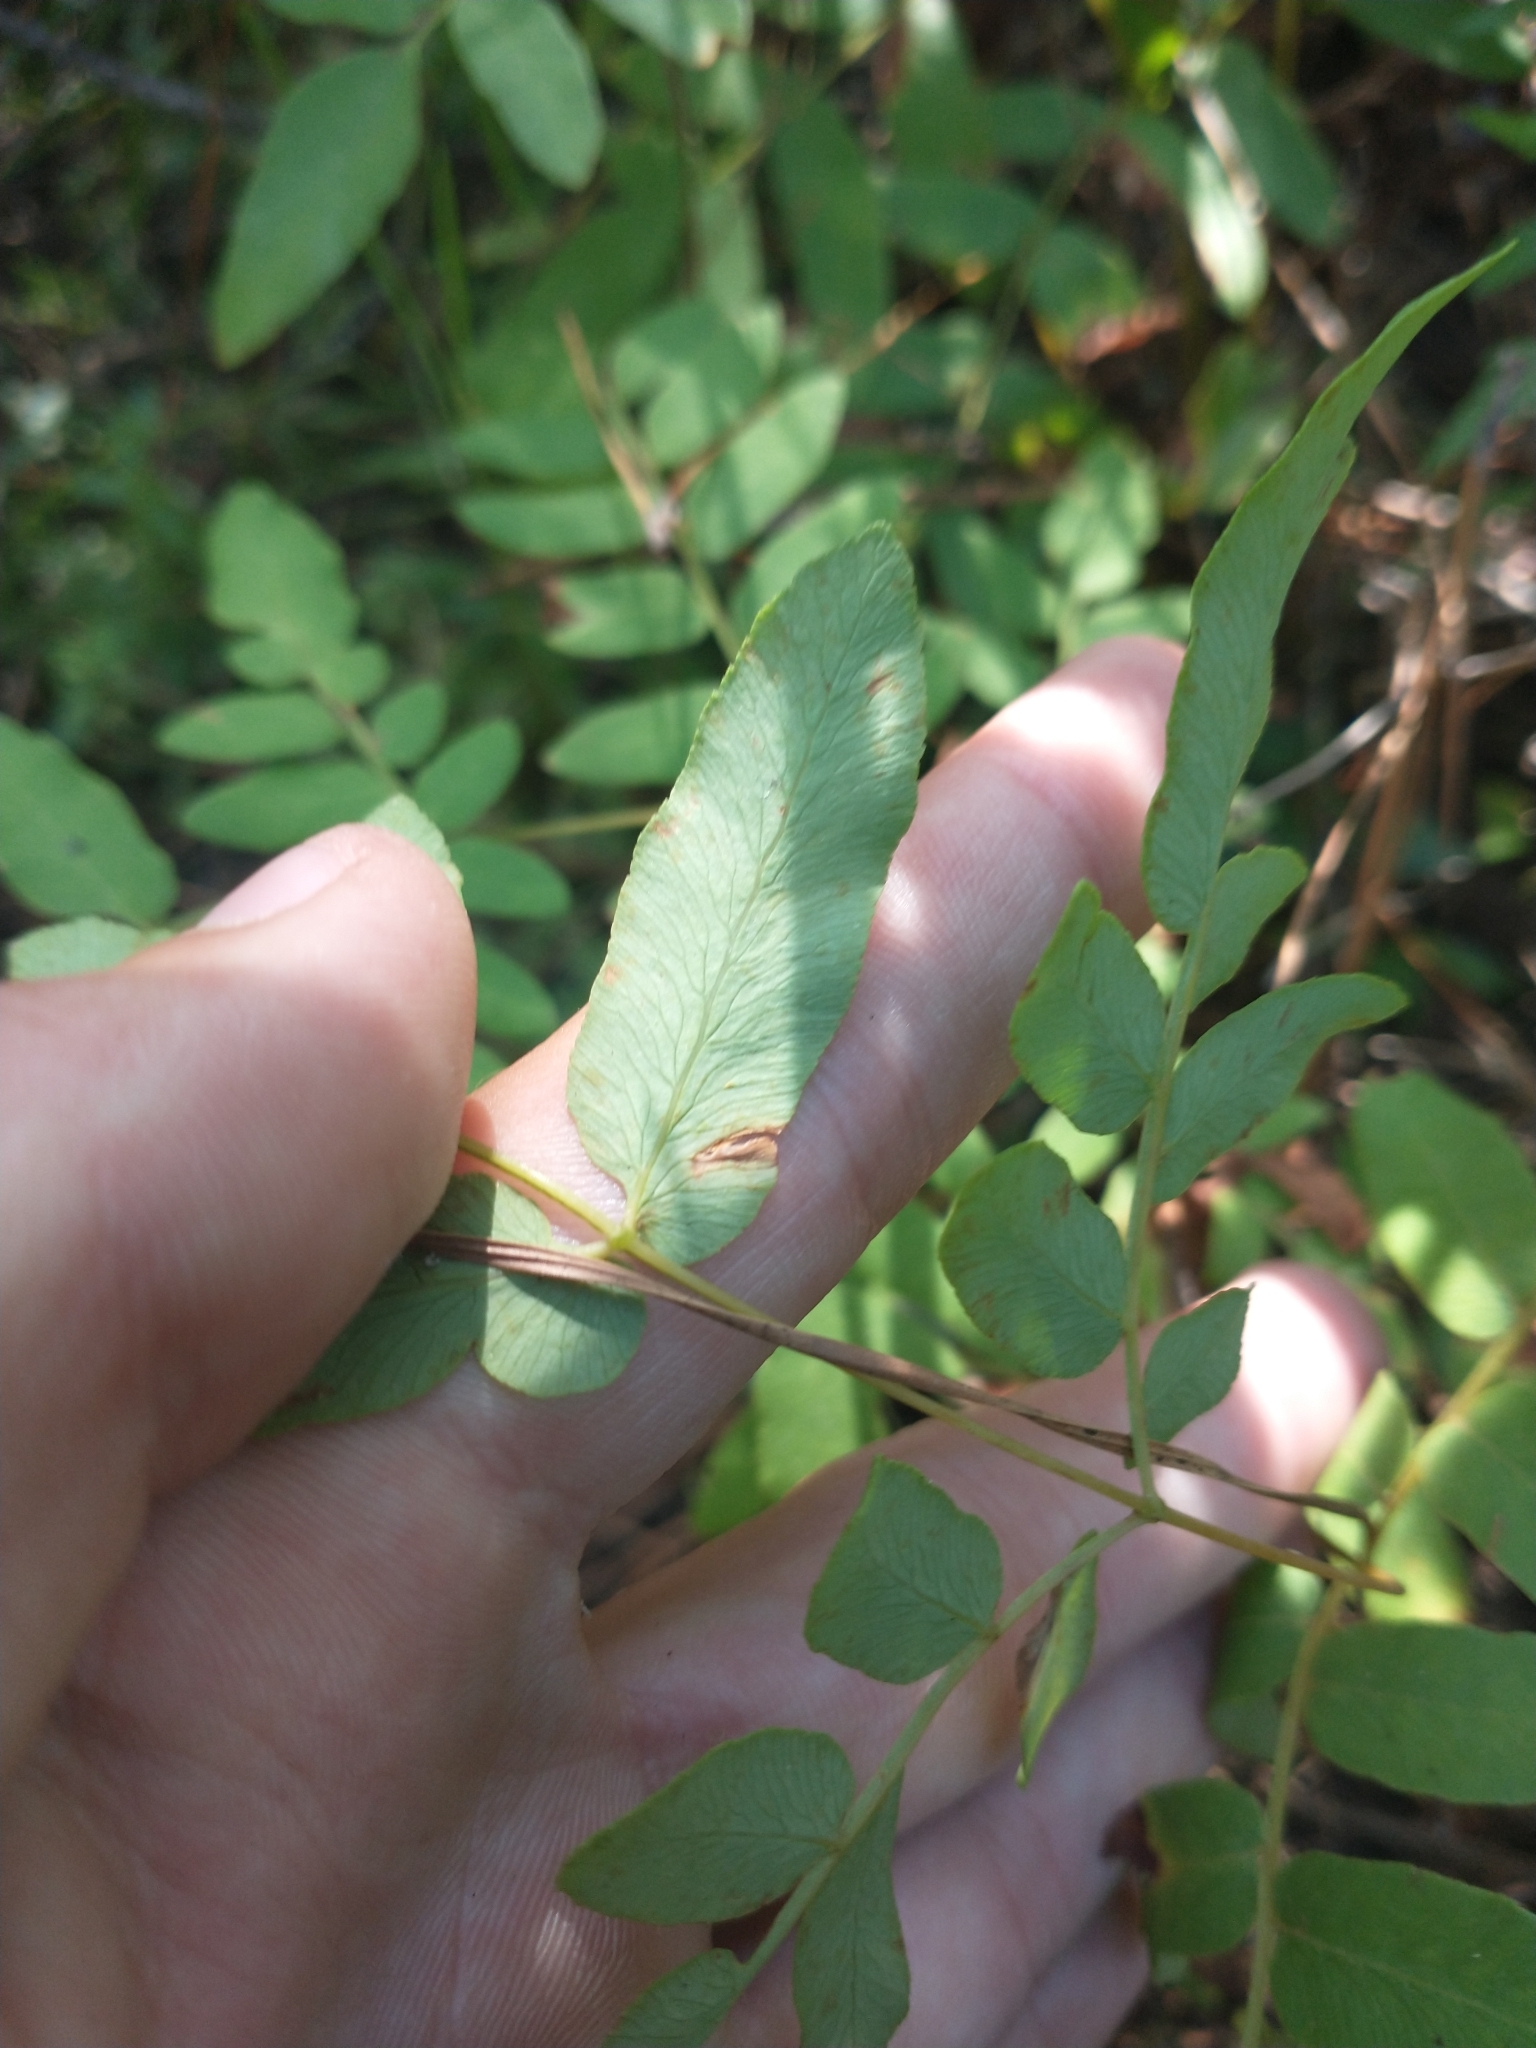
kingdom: Plantae
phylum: Tracheophyta
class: Polypodiopsida
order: Osmundales
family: Osmundaceae
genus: Osmunda
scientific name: Osmunda spectabilis
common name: American royal fern
